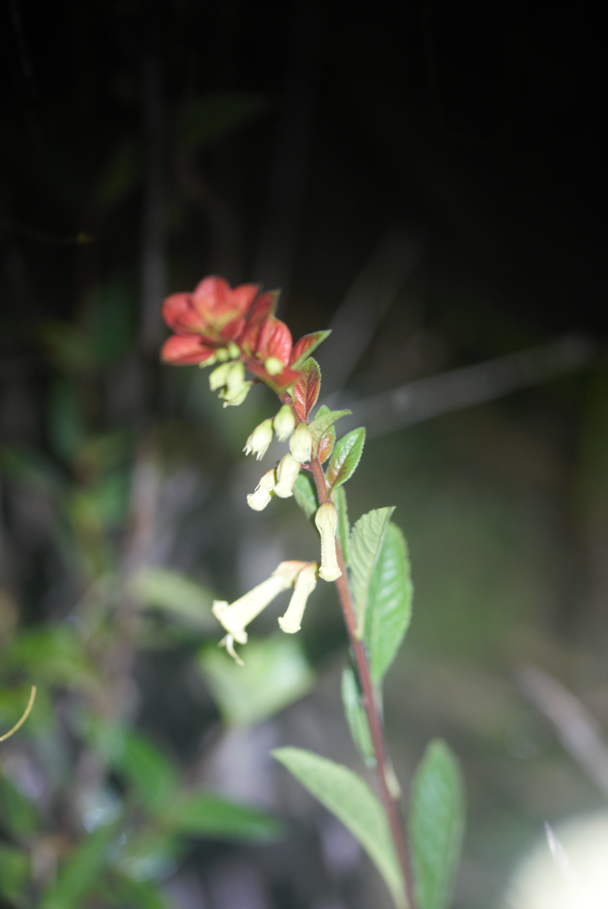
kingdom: Plantae
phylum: Tracheophyta
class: Magnoliopsida
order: Lamiales
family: Lamiaceae
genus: Amasonia
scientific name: Amasonia campestris
